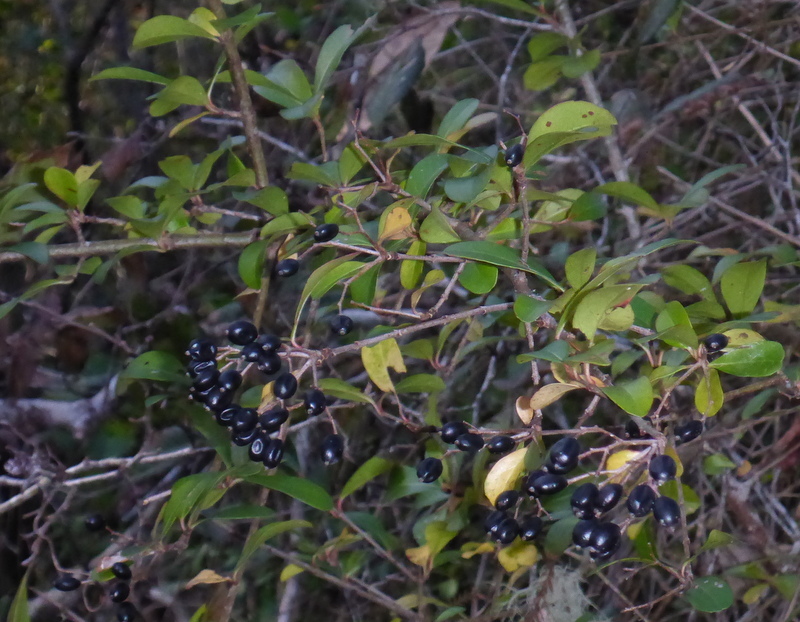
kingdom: Plantae
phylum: Tracheophyta
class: Magnoliopsida
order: Dipsacales
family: Viburnaceae
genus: Viburnum
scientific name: Viburnum obovatum
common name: Walter's viburnum
